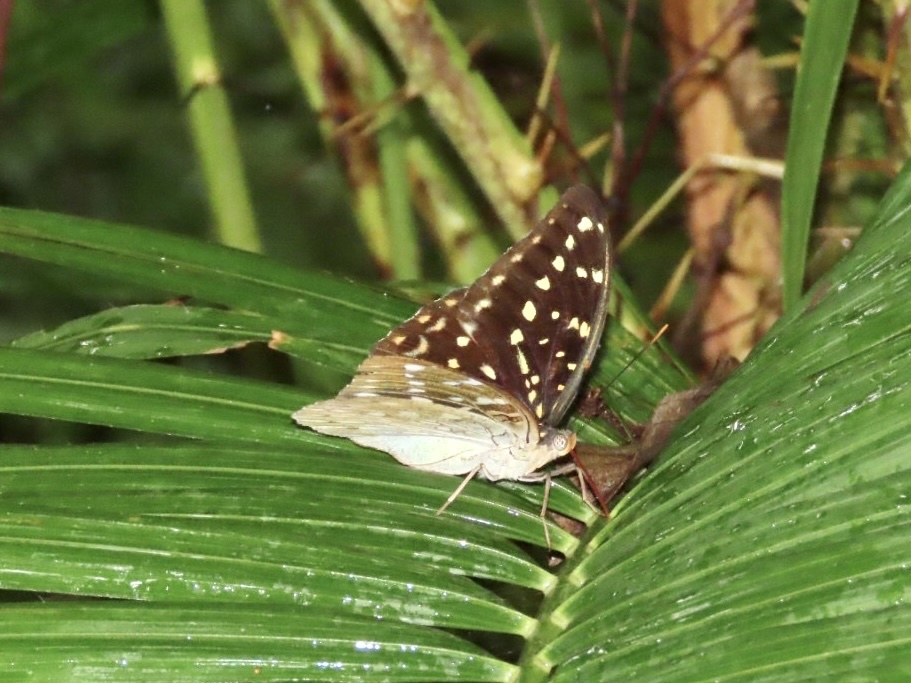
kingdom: Animalia
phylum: Arthropoda
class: Insecta
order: Lepidoptera
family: Nymphalidae
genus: Lexias
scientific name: Lexias pardalis
